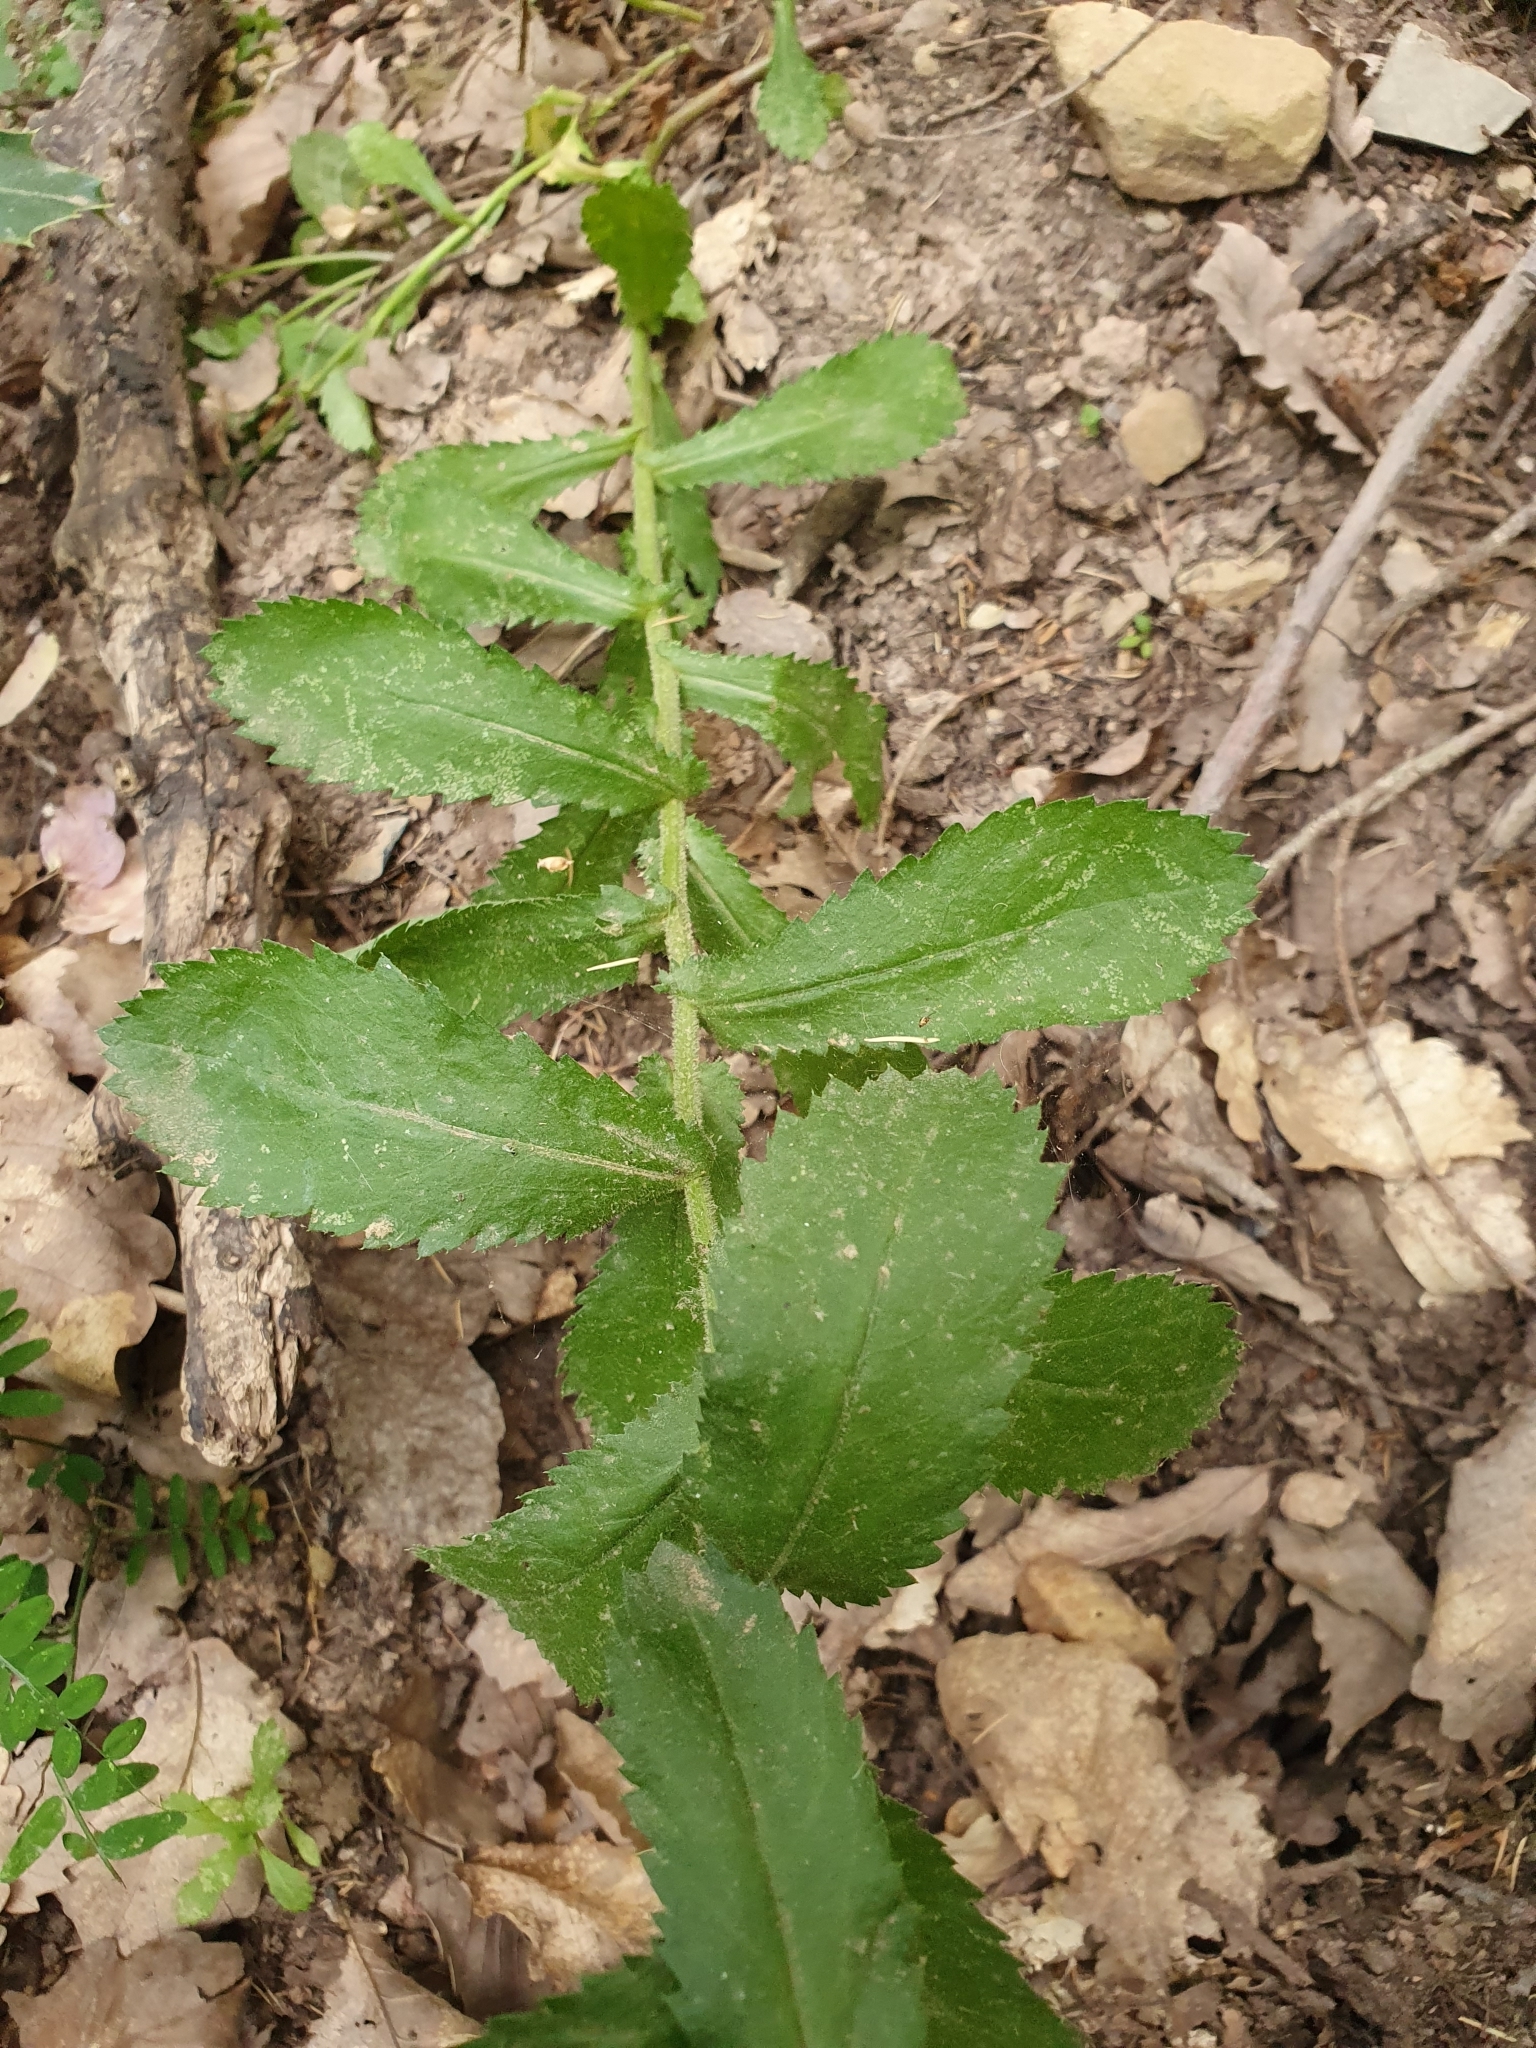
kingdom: Plantae
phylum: Tracheophyta
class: Magnoliopsida
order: Asterales
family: Asteraceae
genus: Plagius
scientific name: Plagius maghrebinus
